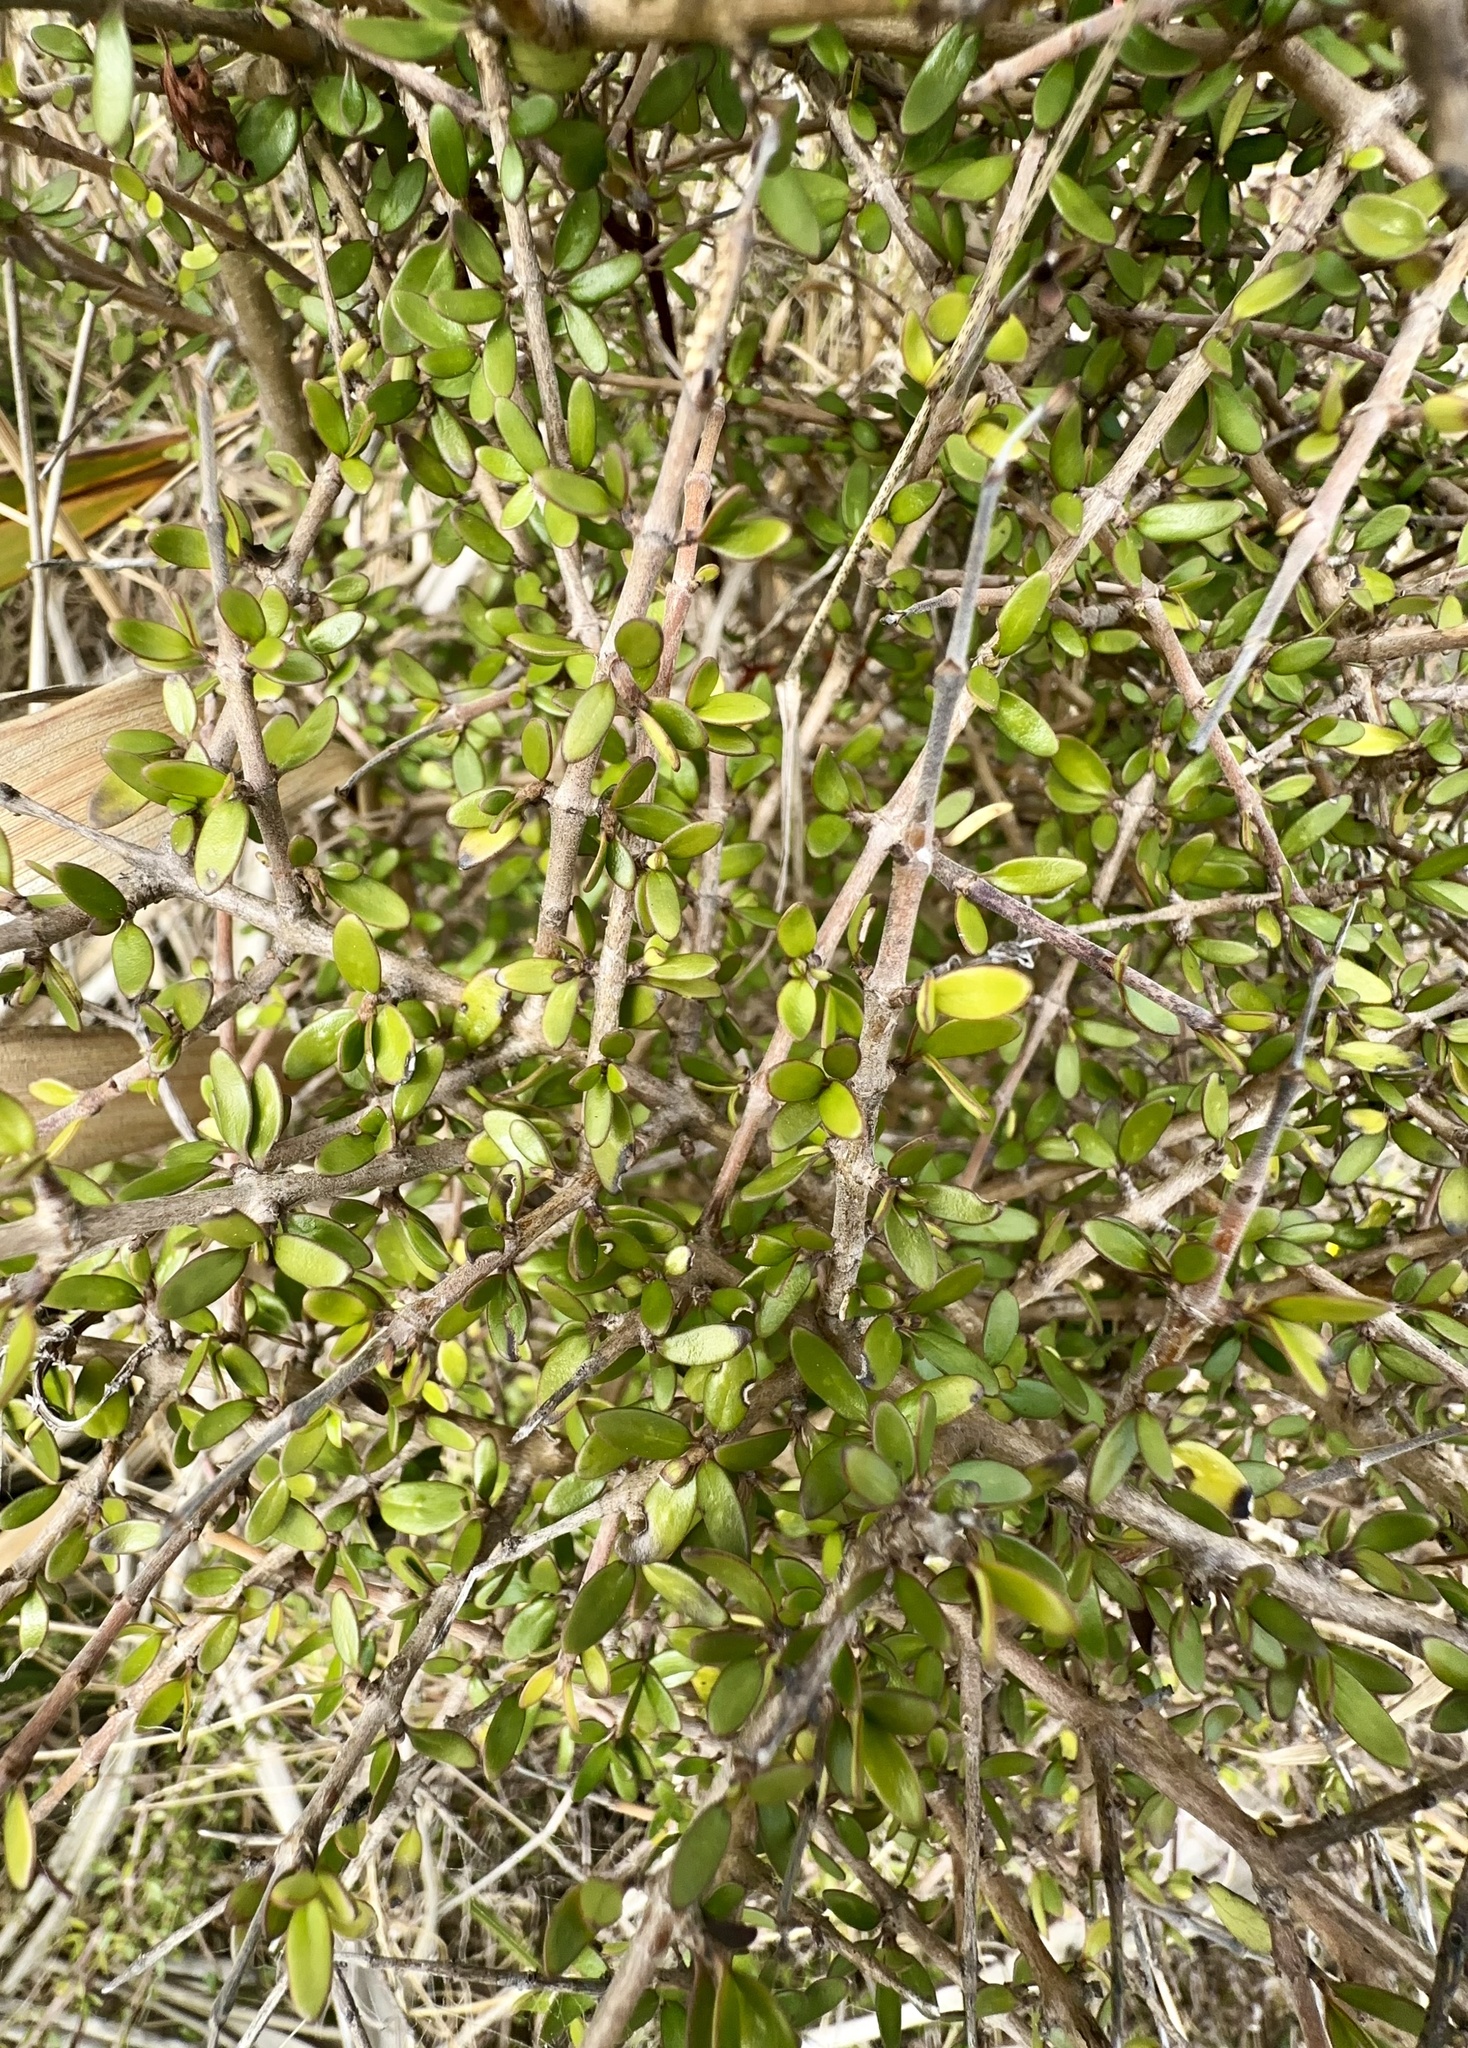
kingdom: Plantae
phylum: Tracheophyta
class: Magnoliopsida
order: Gentianales
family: Rubiaceae
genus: Coprosma
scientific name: Coprosma propinqua
